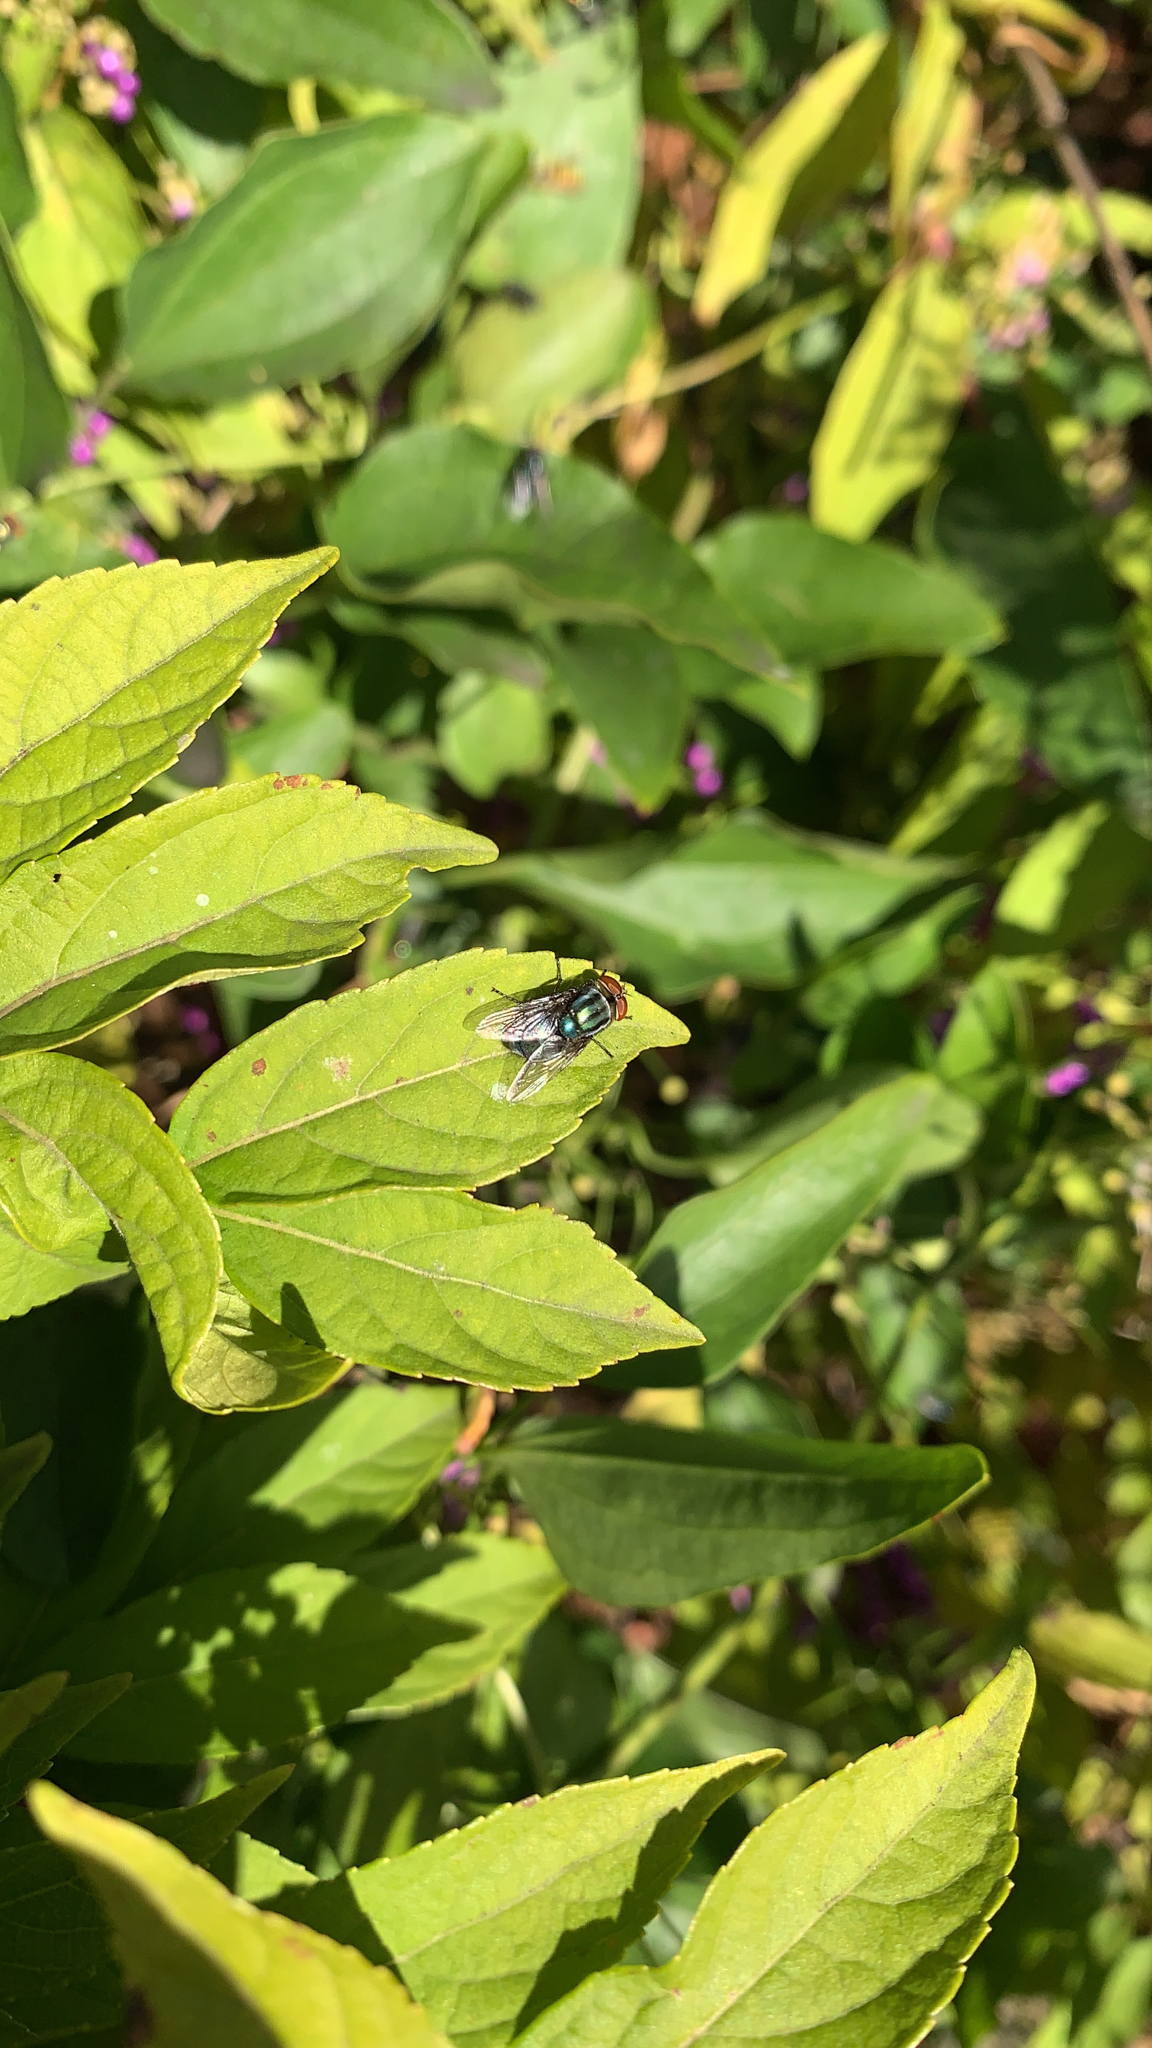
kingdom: Animalia
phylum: Arthropoda
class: Insecta
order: Diptera
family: Calliphoridae
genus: Cochliomyia
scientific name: Cochliomyia macellaria
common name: Secondary screwworm
